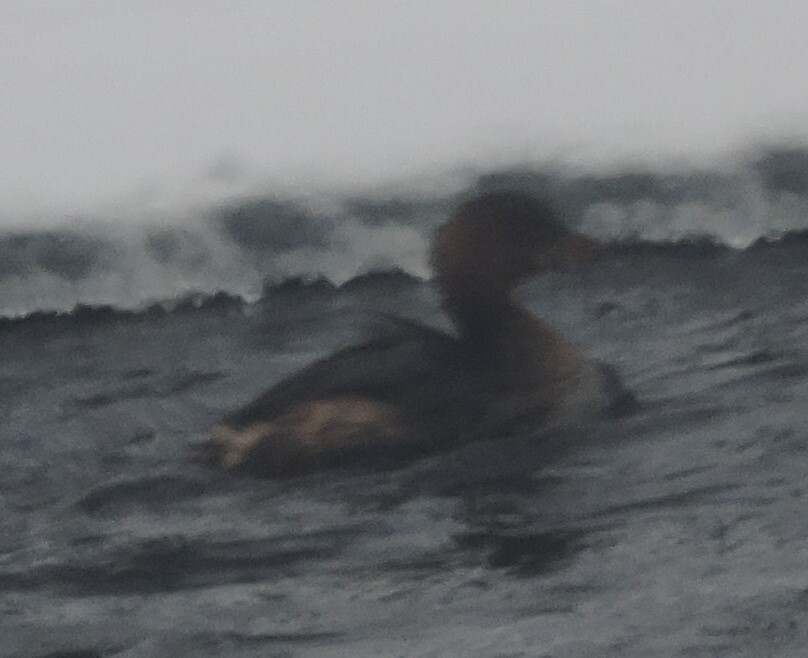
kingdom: Animalia
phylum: Chordata
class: Aves
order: Podicipediformes
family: Podicipedidae
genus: Podilymbus
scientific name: Podilymbus podiceps
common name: Pied-billed grebe
